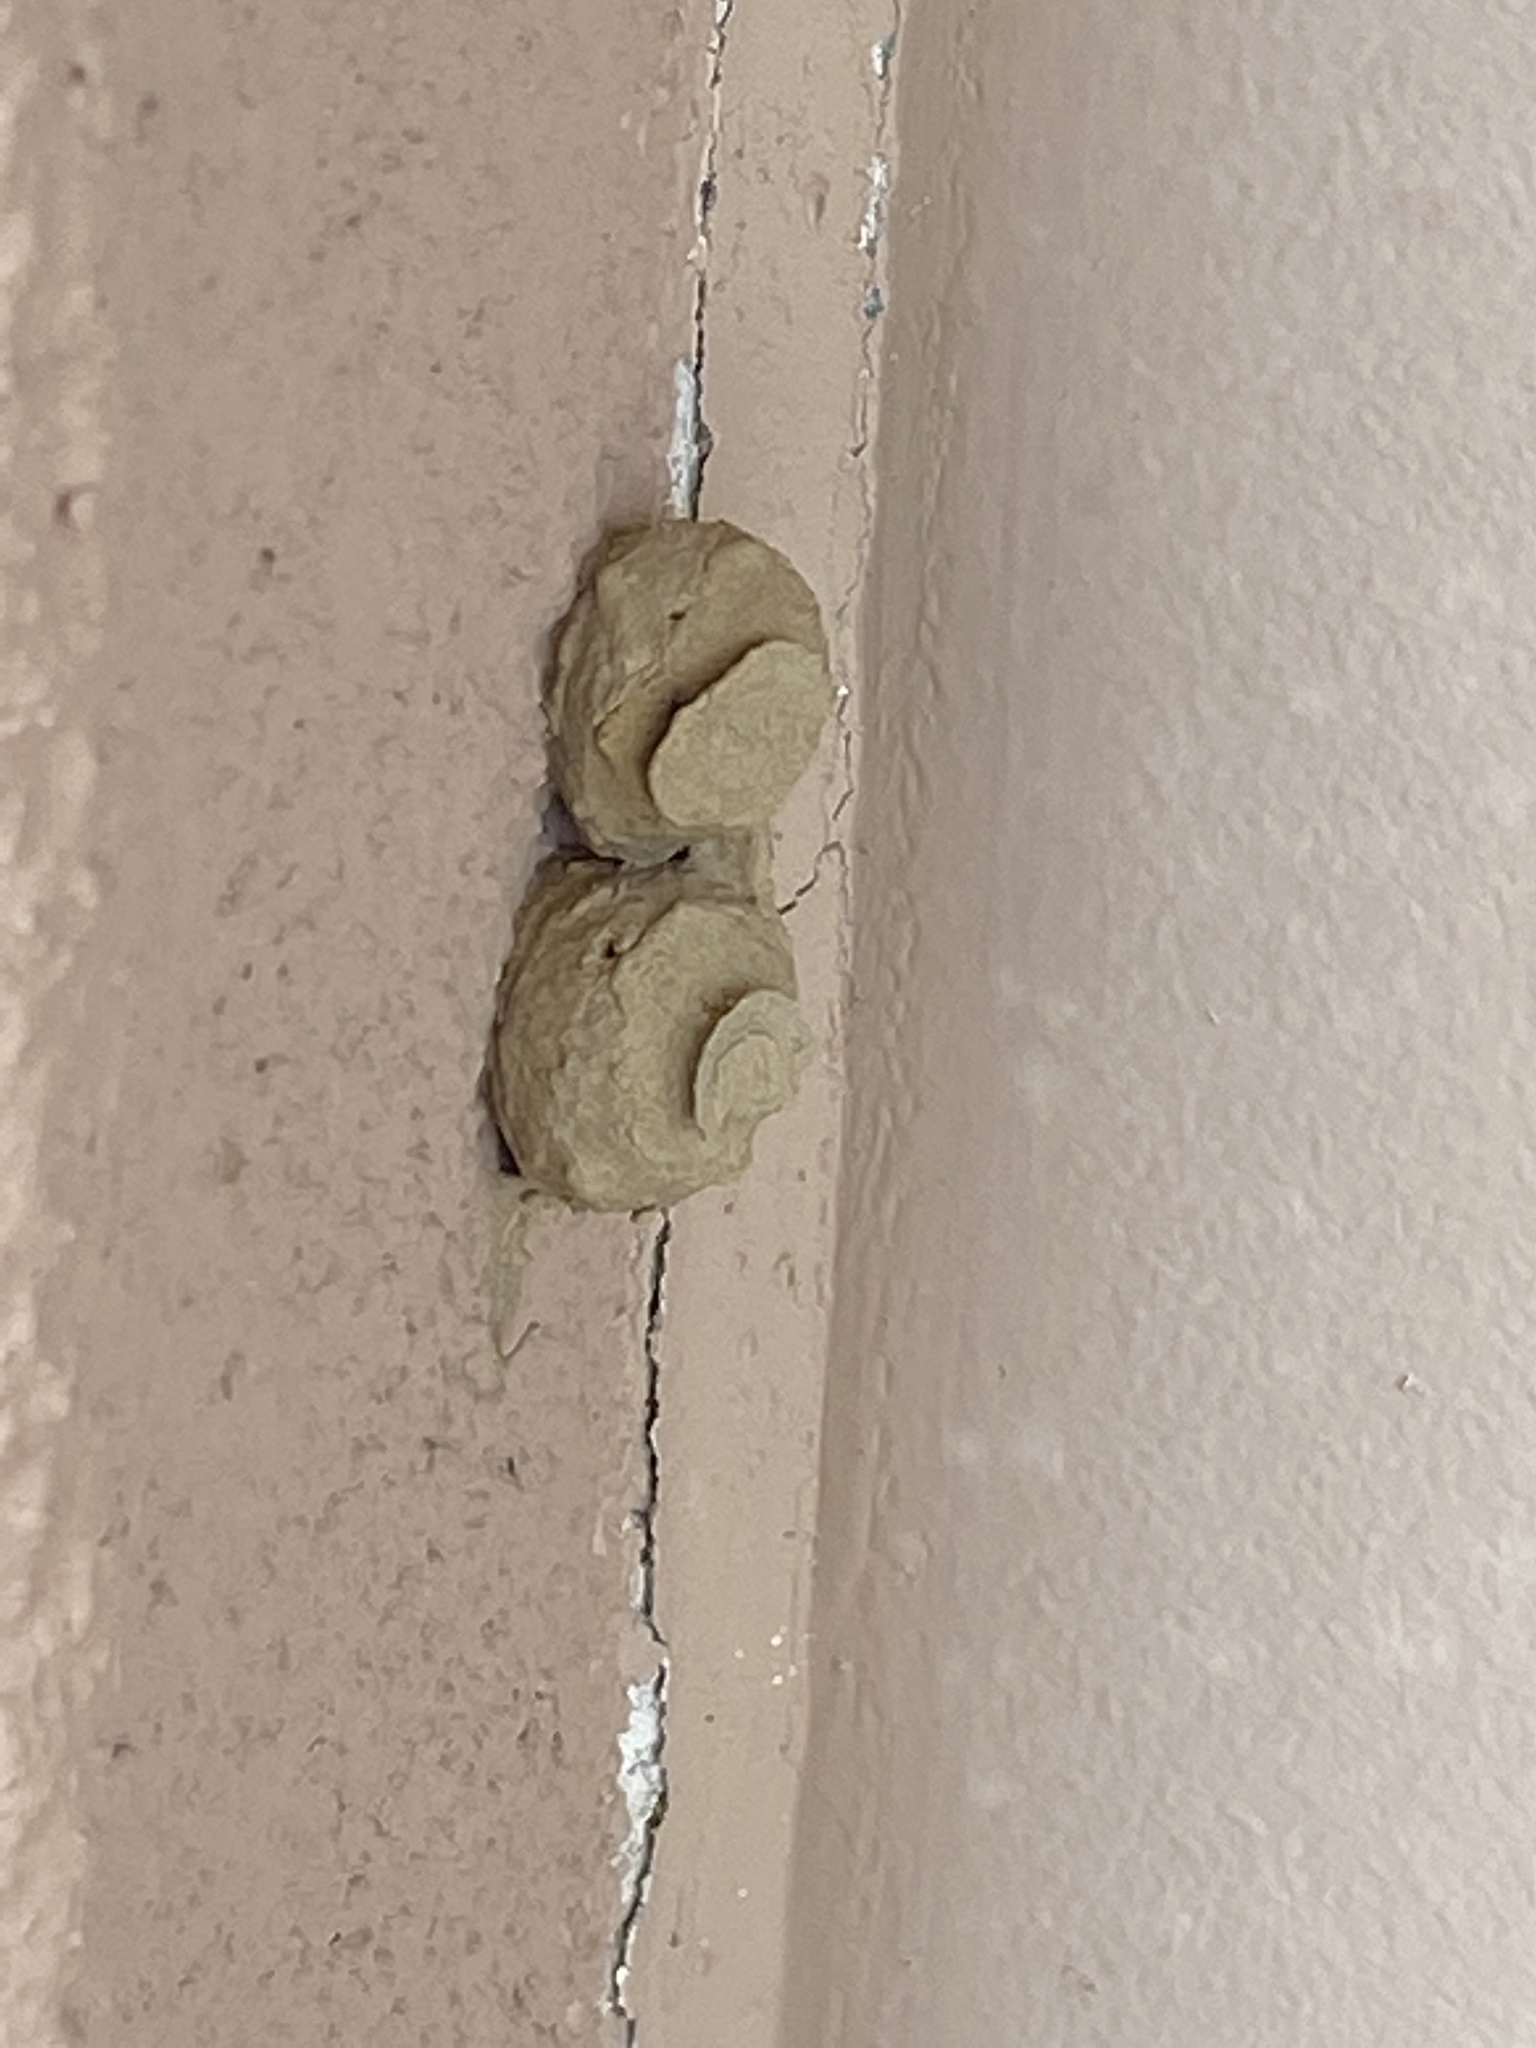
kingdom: Animalia
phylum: Arthropoda
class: Insecta
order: Hymenoptera
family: Vespidae
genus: Eumenes
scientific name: Eumenes
